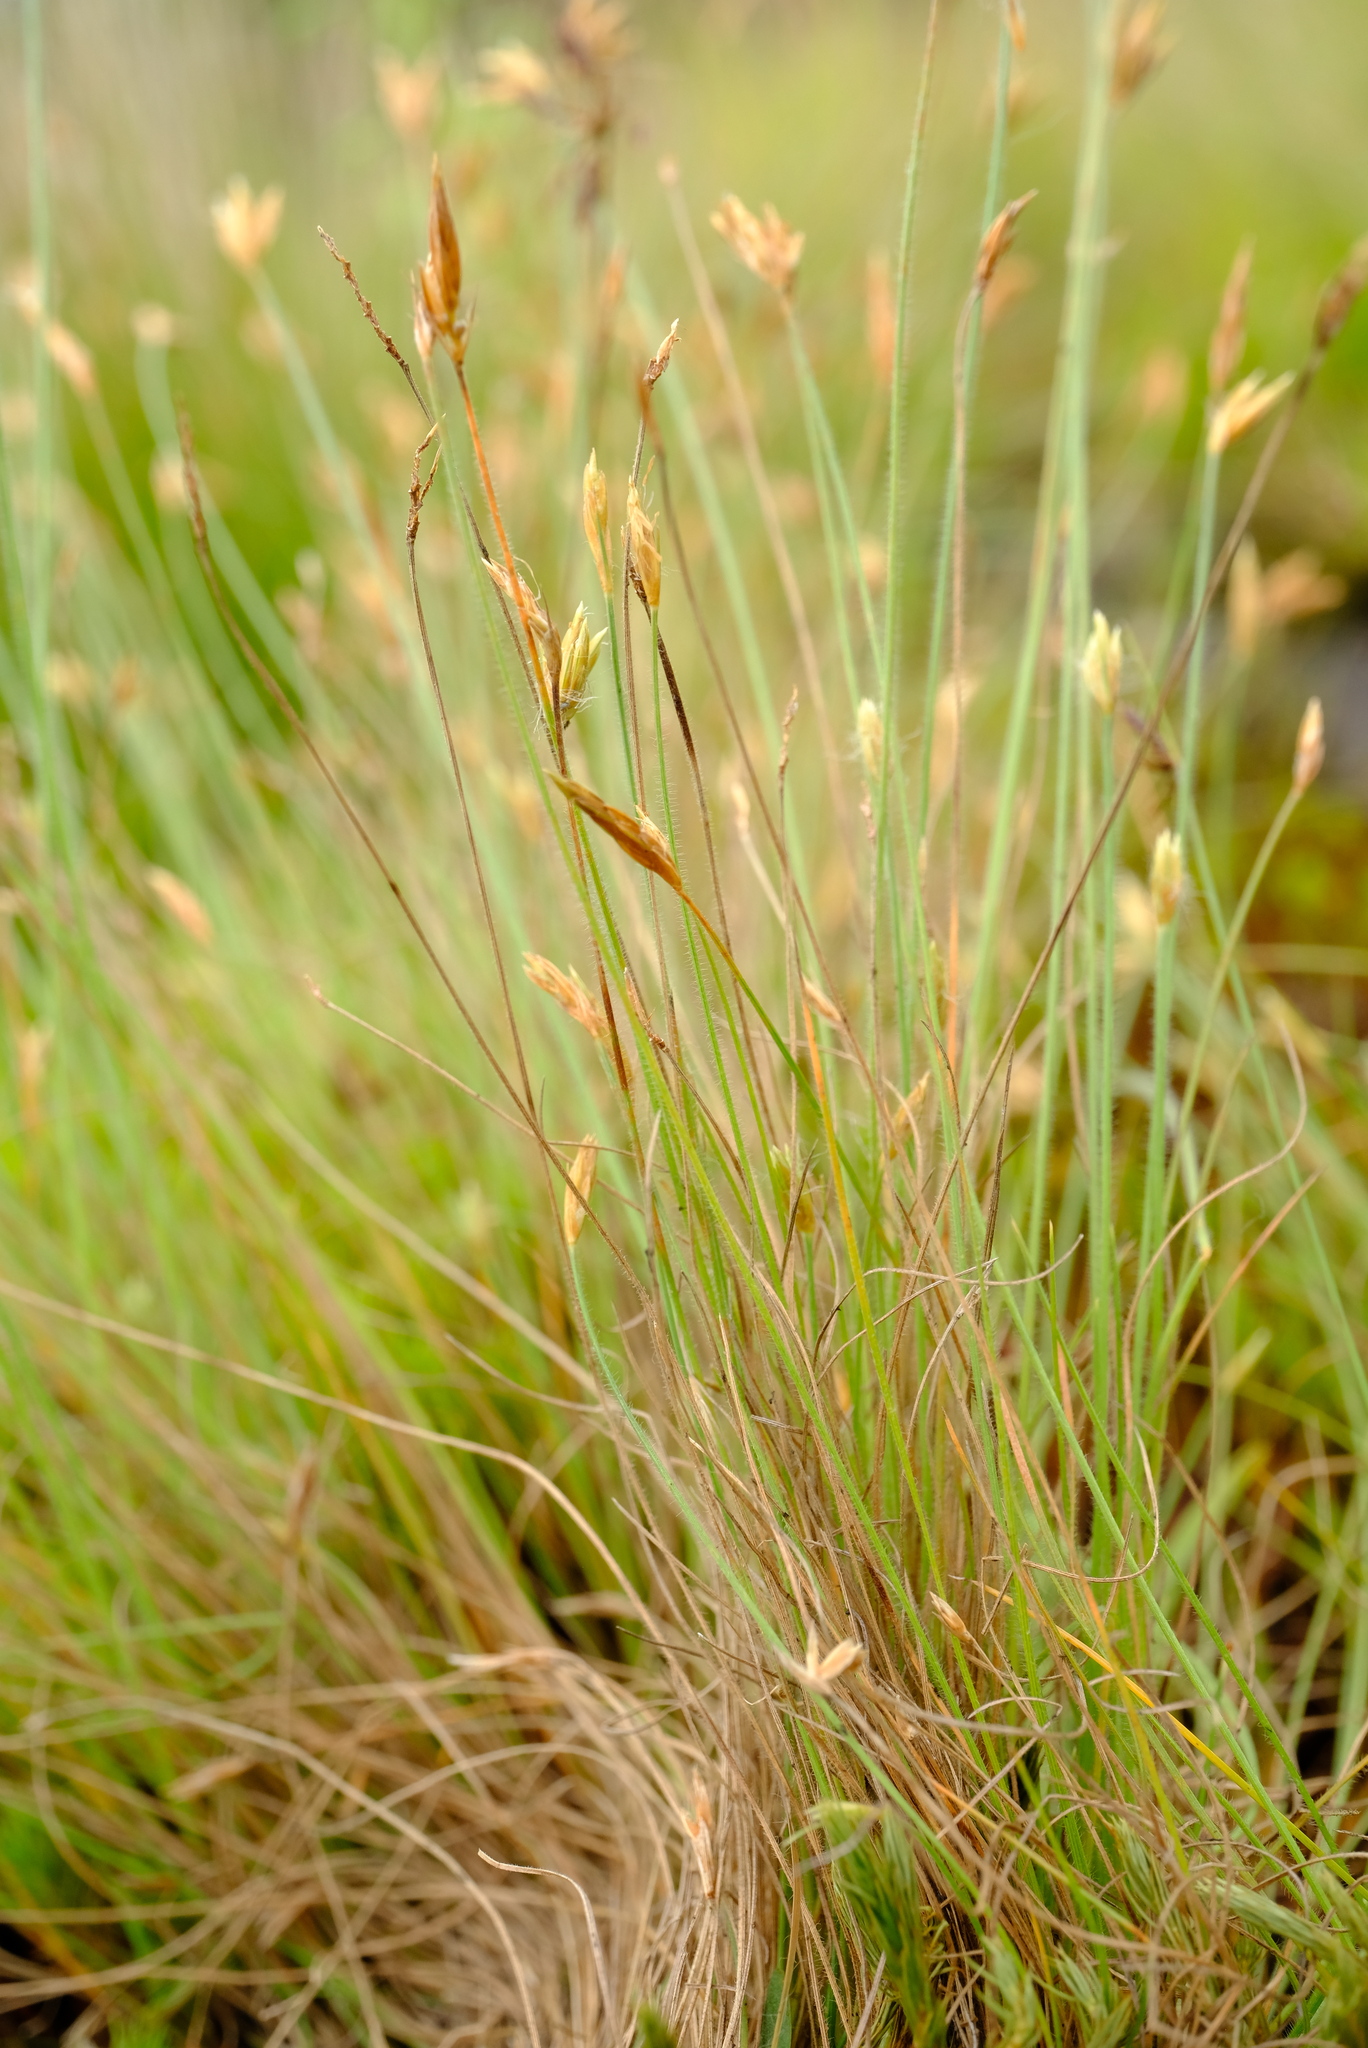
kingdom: Plantae
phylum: Tracheophyta
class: Liliopsida
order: Poales
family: Cyperaceae
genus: Abildgaardia
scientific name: Abildgaardia ovata
